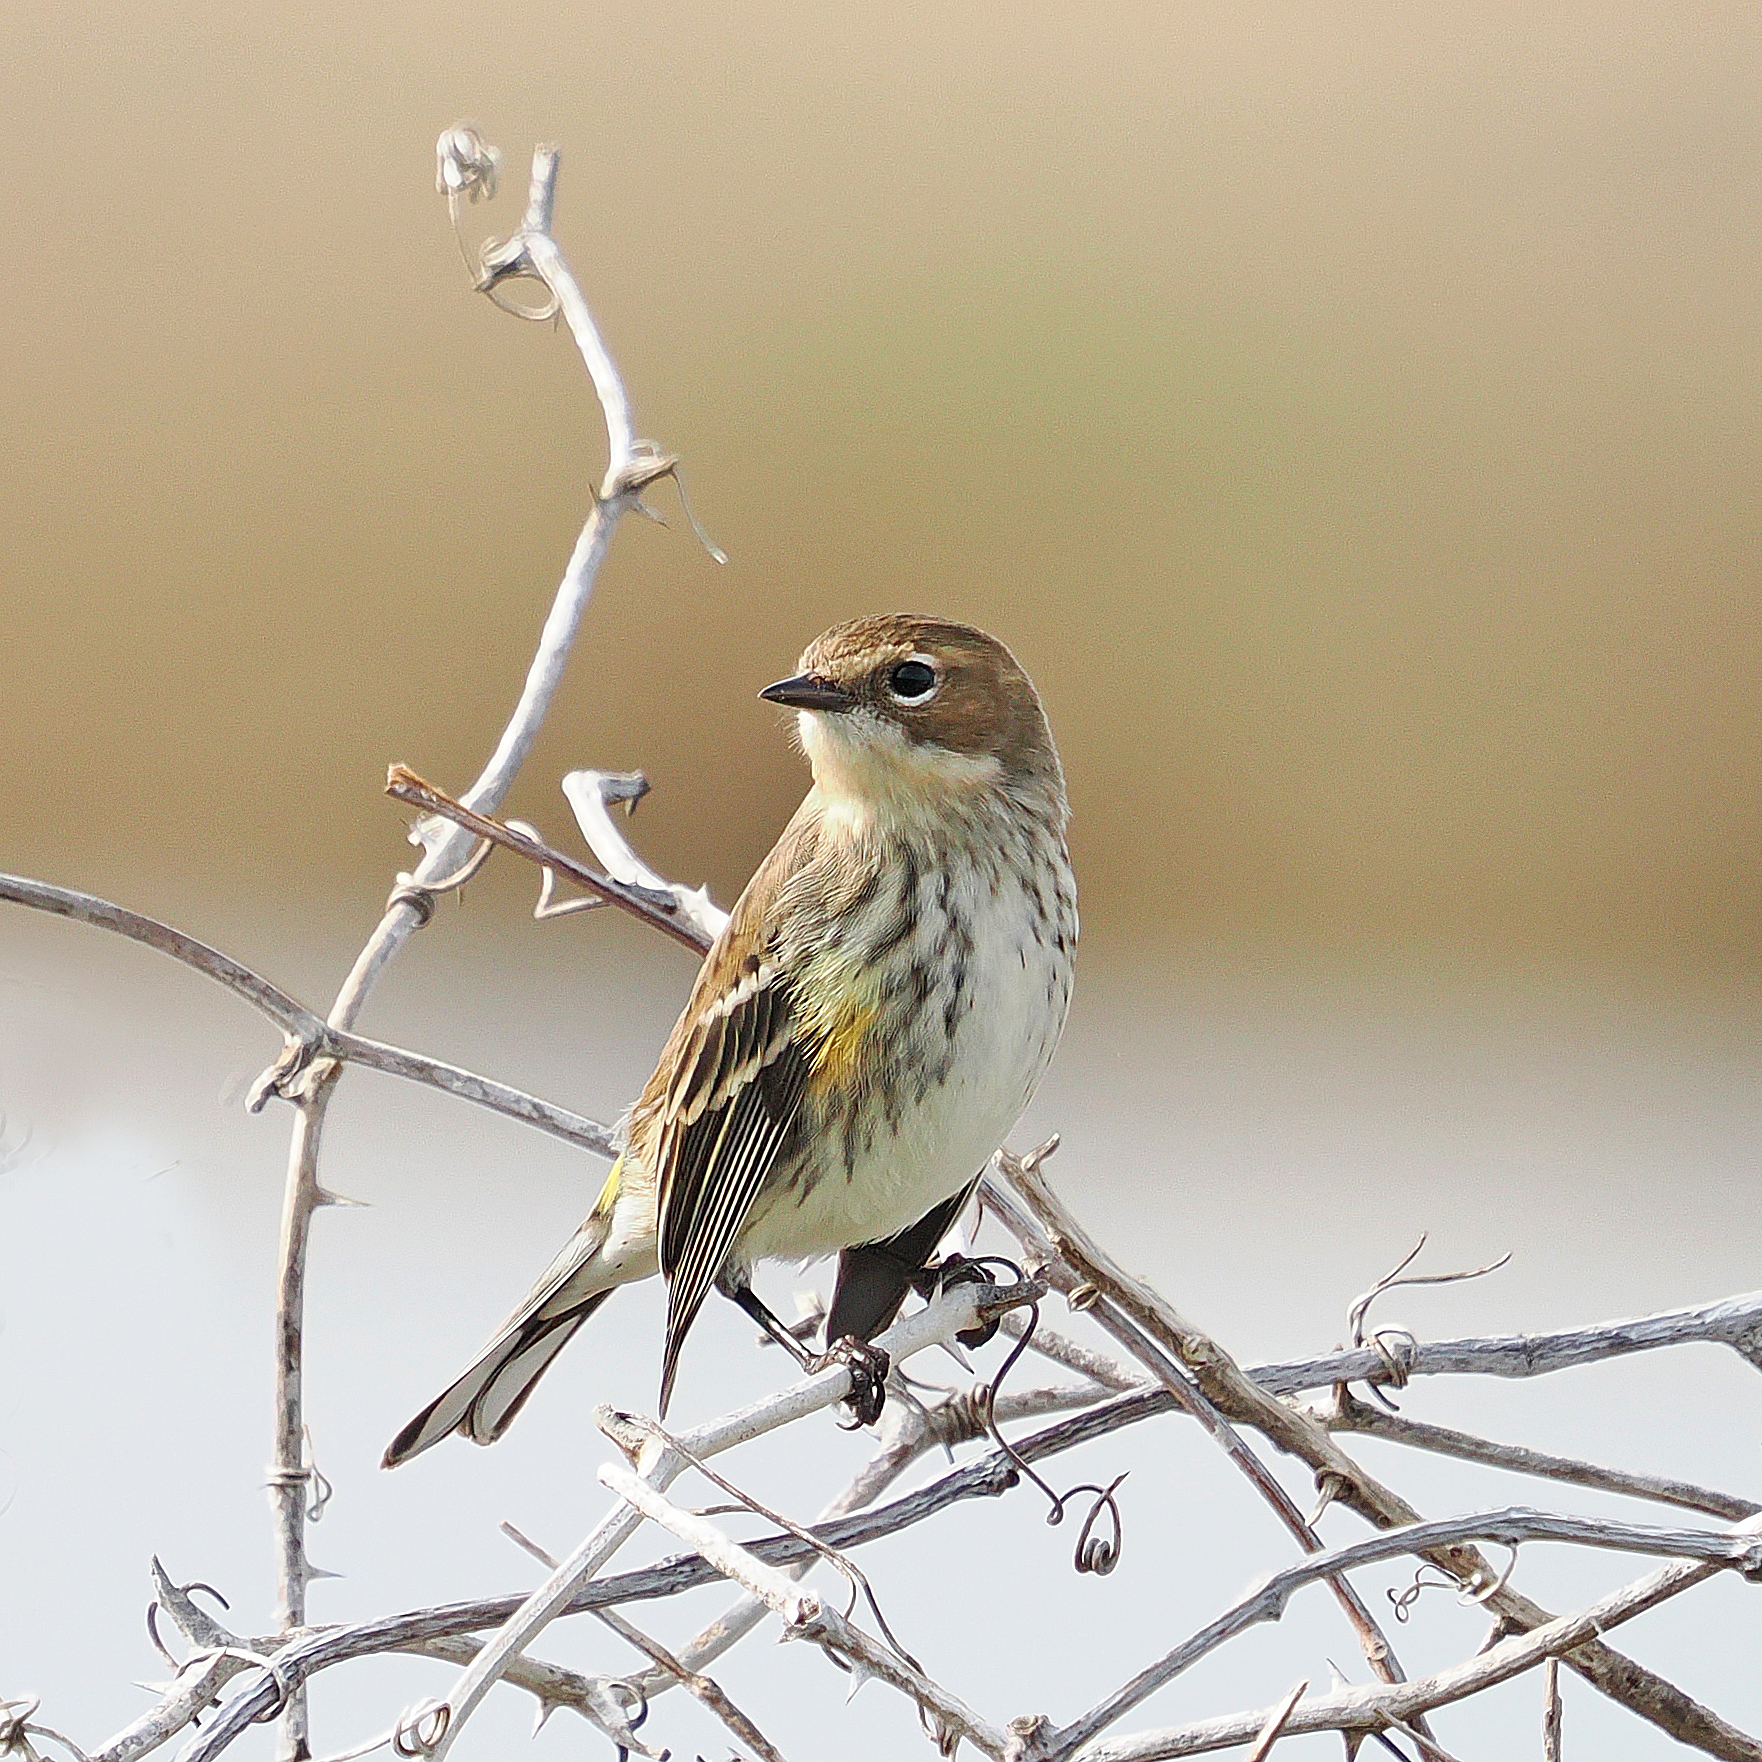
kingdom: Animalia
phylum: Chordata
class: Aves
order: Passeriformes
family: Parulidae
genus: Setophaga
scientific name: Setophaga coronata
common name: Myrtle warbler
